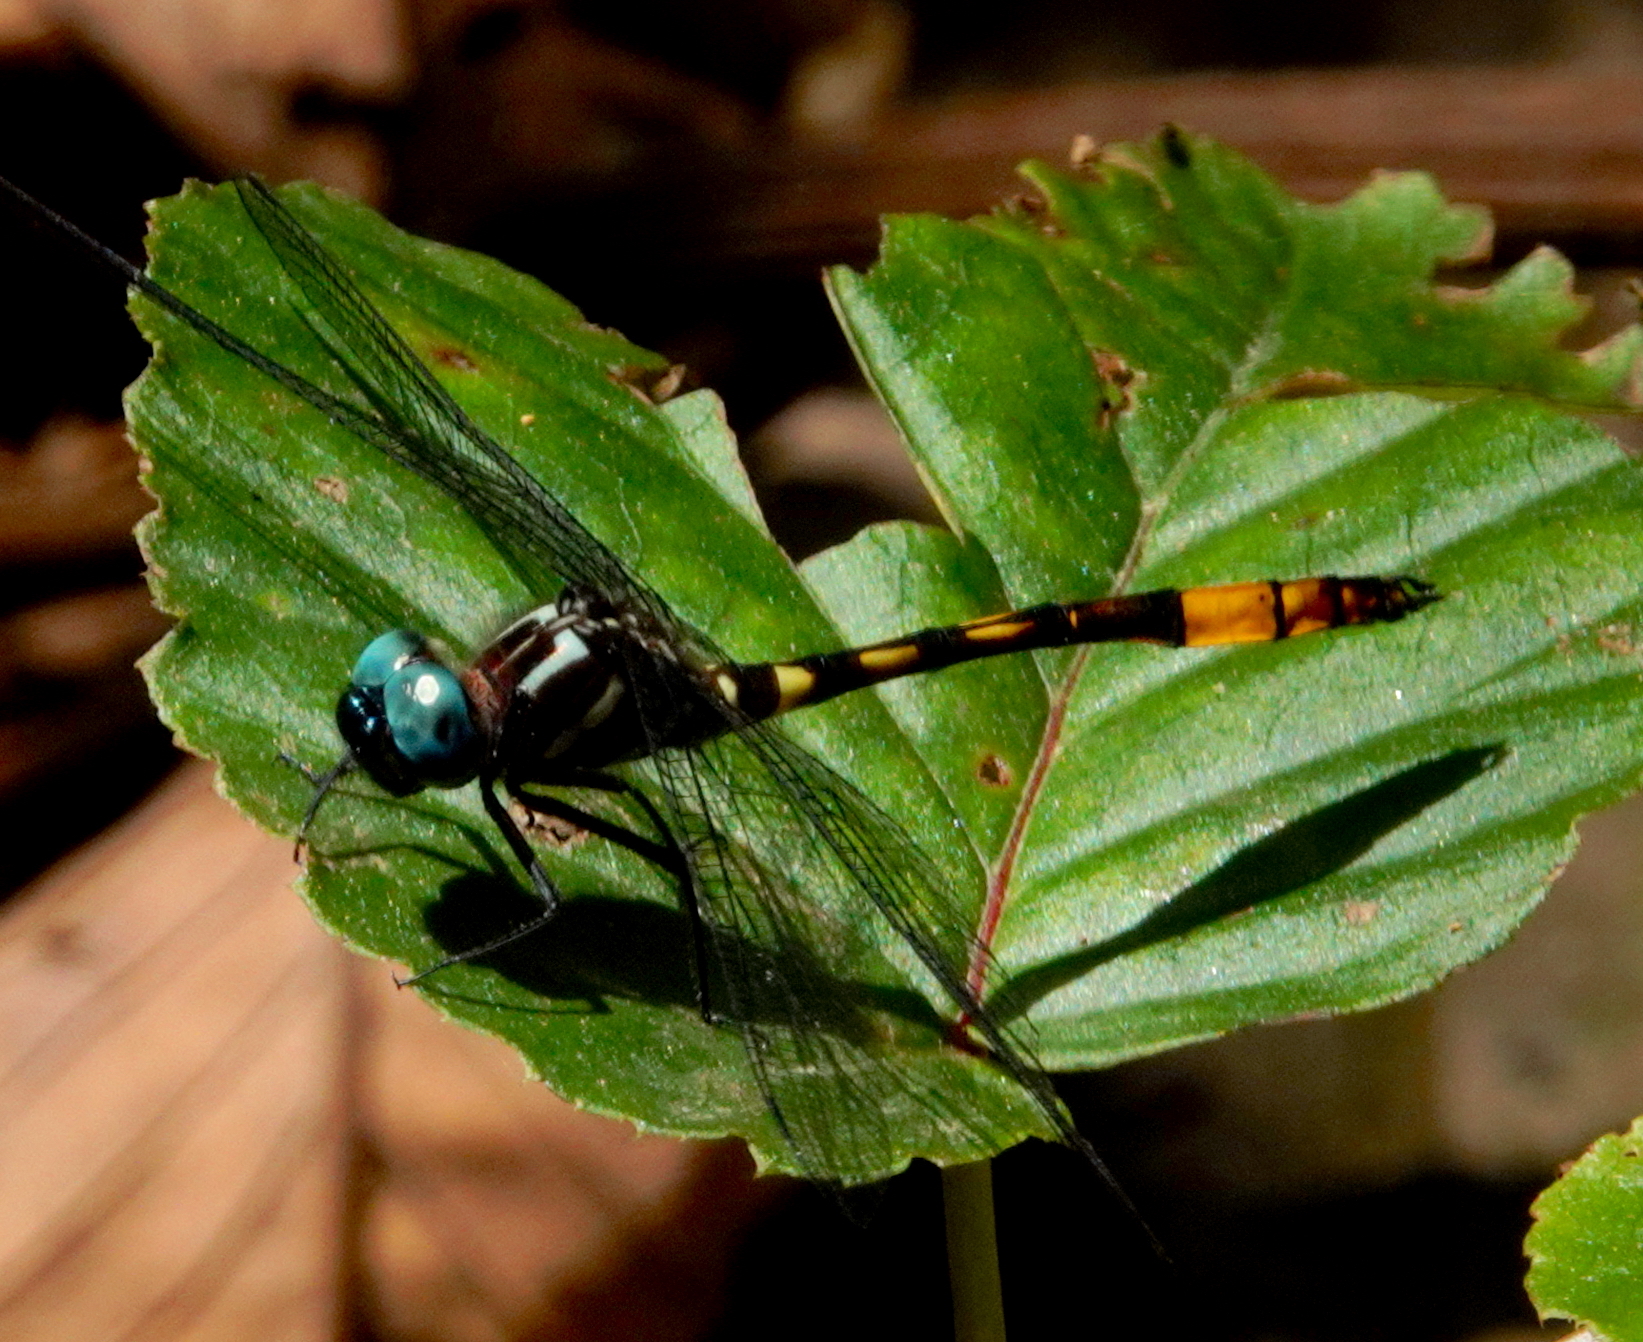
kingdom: Animalia
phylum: Arthropoda
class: Insecta
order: Odonata
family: Libellulidae
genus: Brechmorhoga
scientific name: Brechmorhoga rapax
